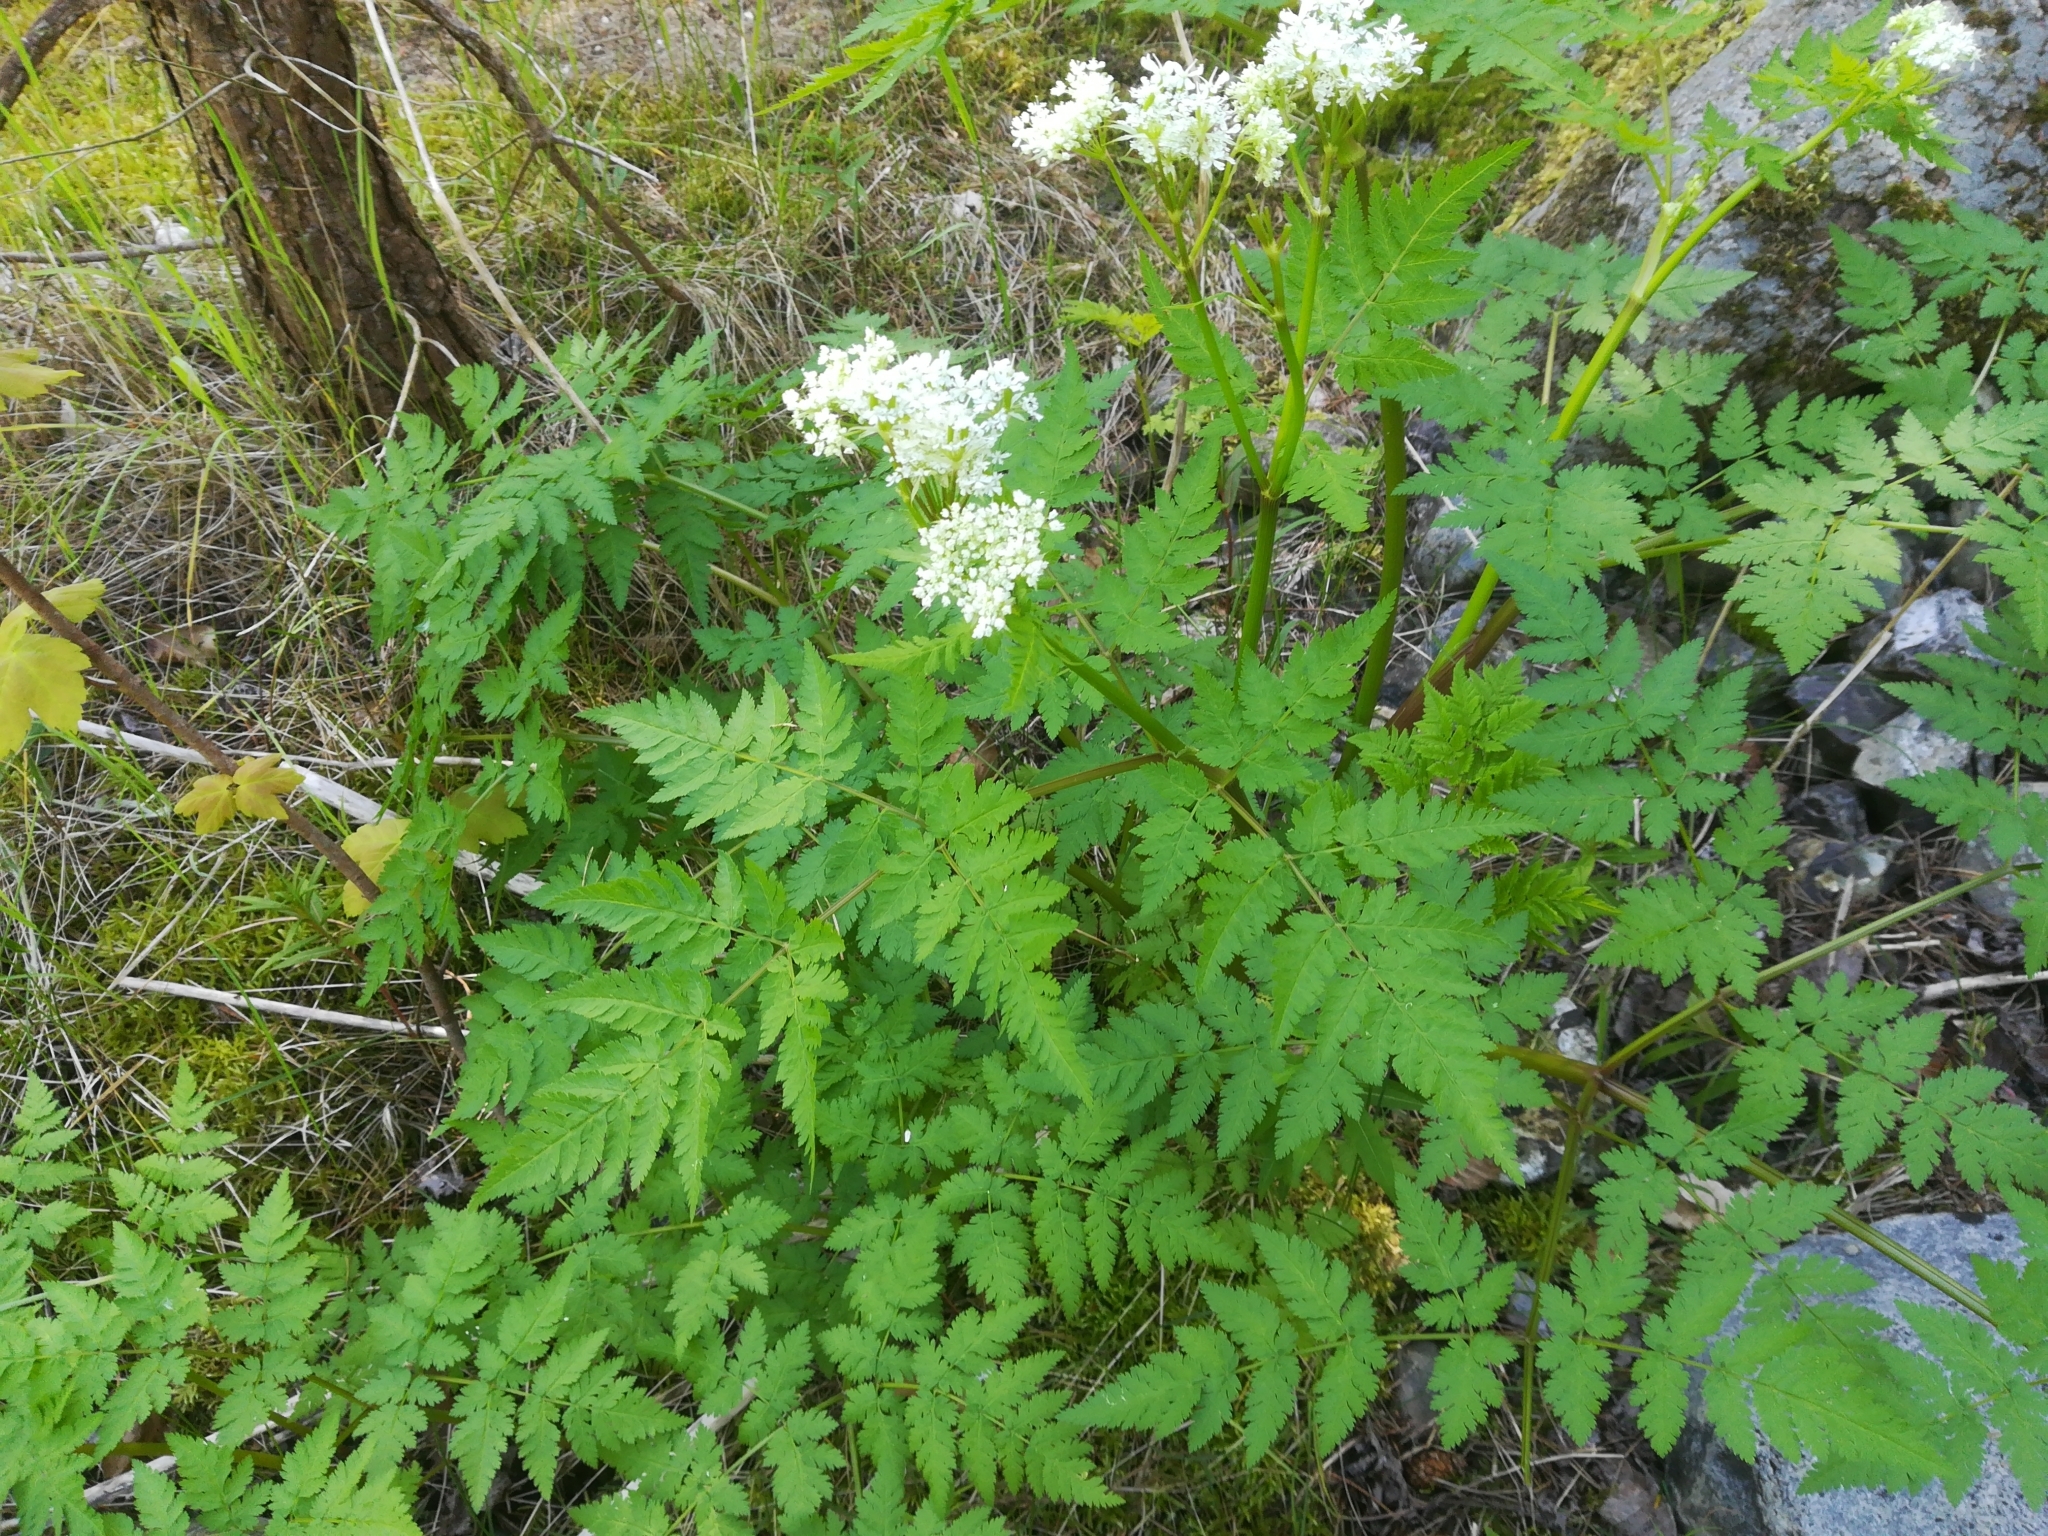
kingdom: Plantae
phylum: Tracheophyta
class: Magnoliopsida
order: Apiales
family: Apiaceae
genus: Myrrhis
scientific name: Myrrhis odorata
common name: Sweet cicely
